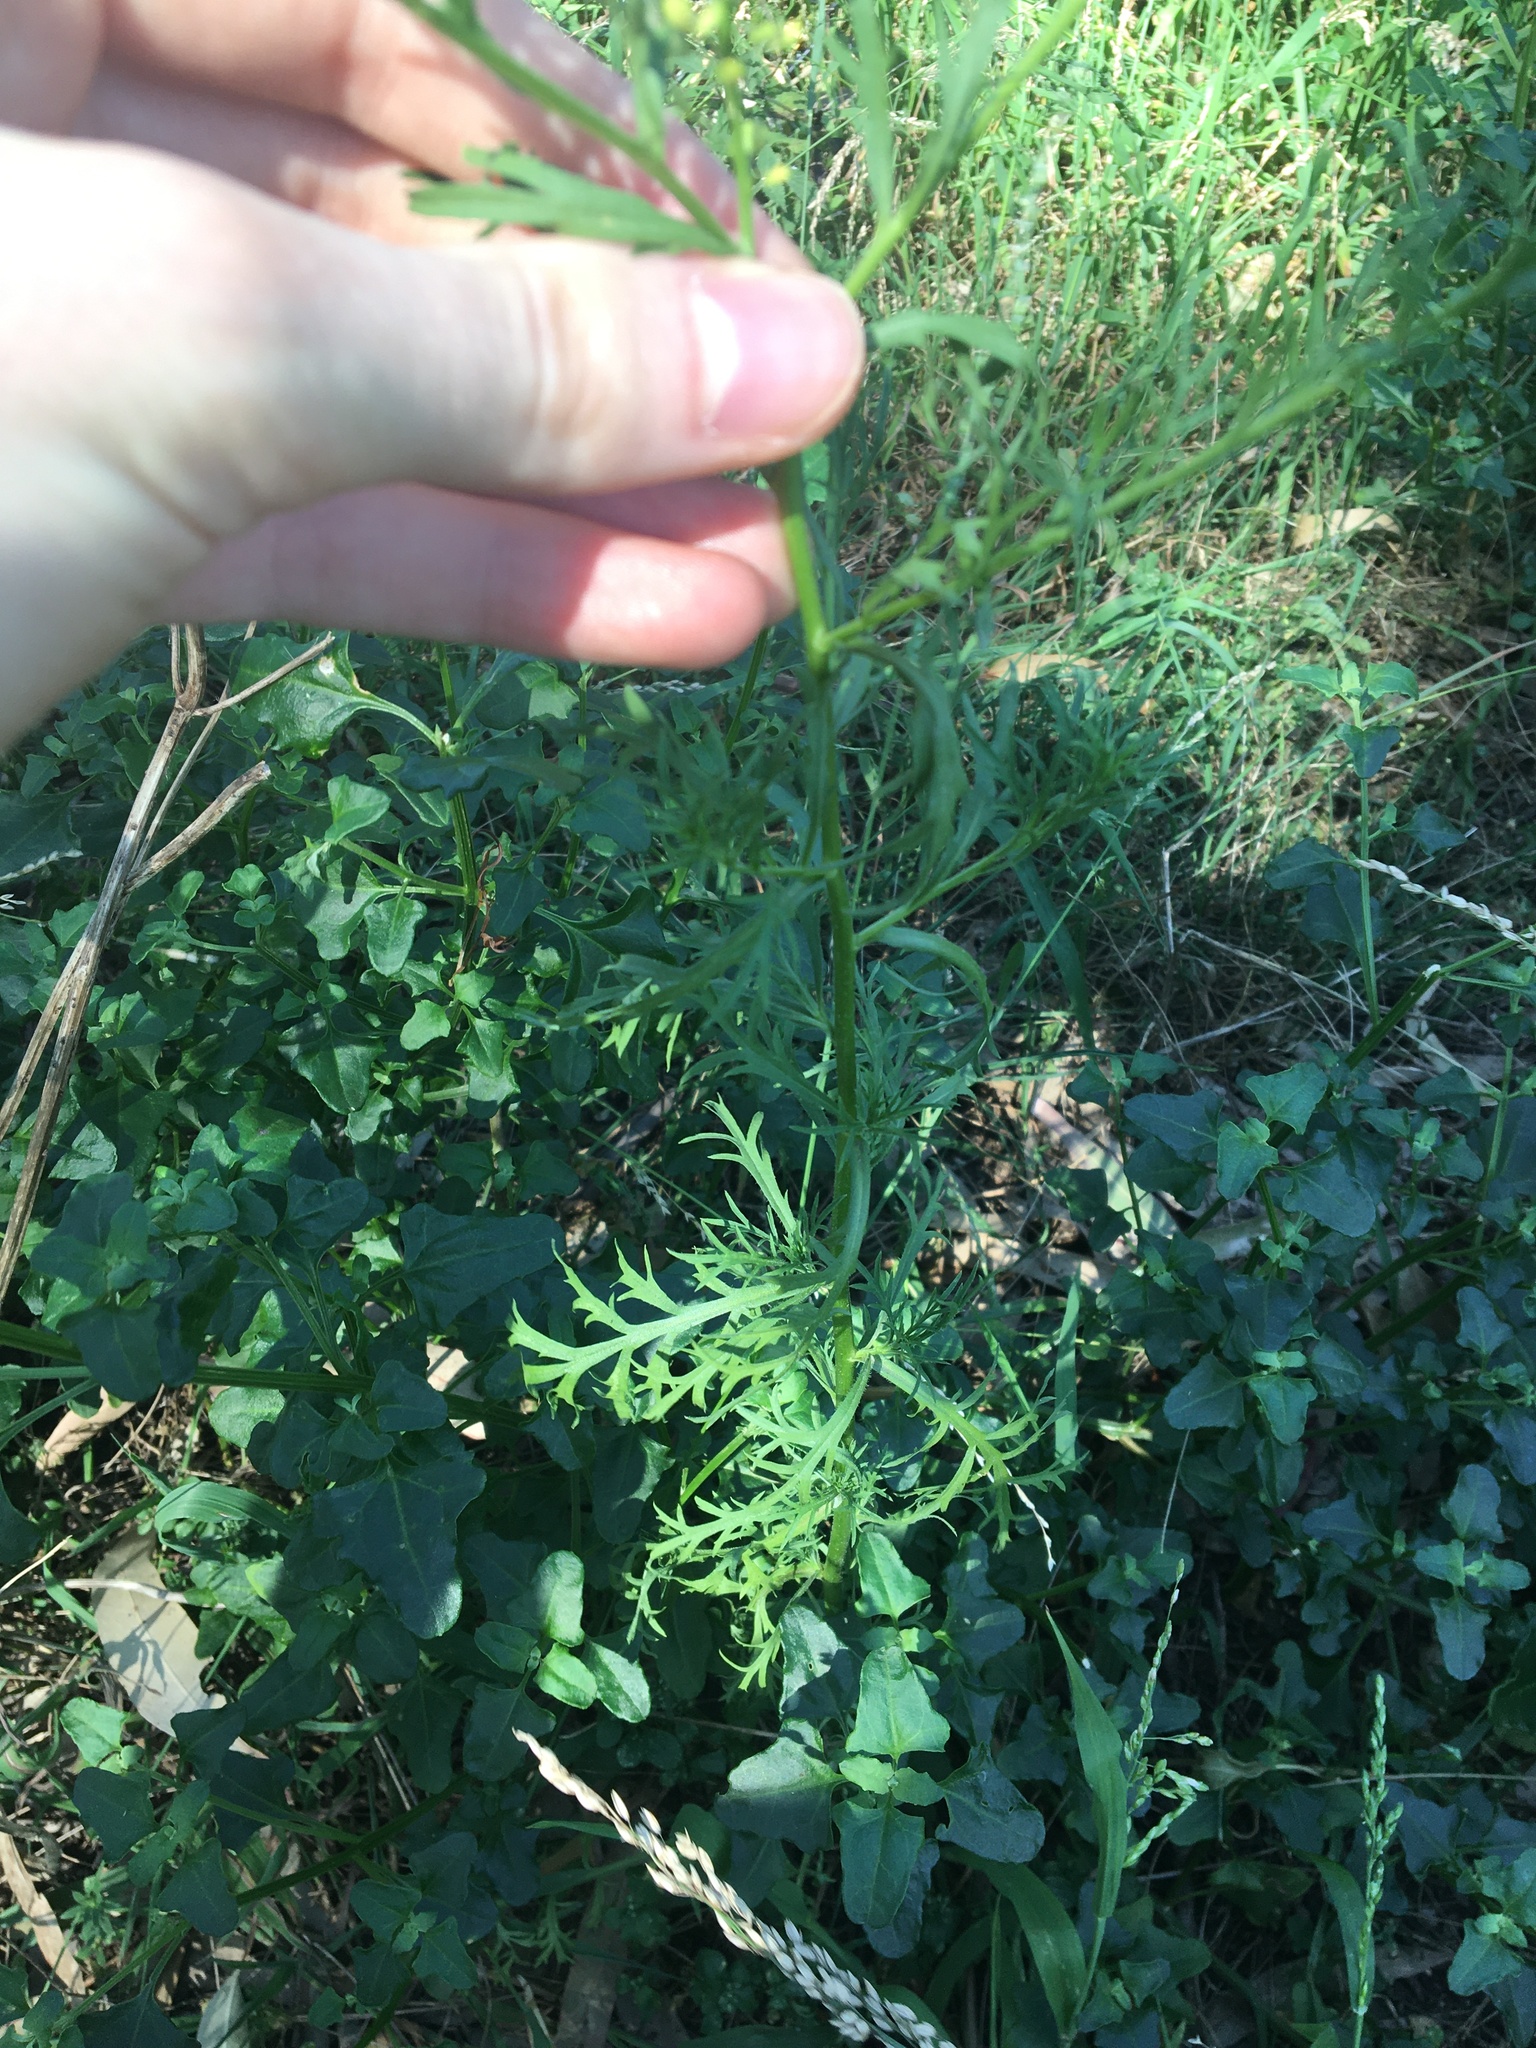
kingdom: Plantae
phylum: Tracheophyta
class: Magnoliopsida
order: Brassicales
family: Brassicaceae
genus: Lepidium
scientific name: Lepidium bonariense
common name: Argentine pepperwort
